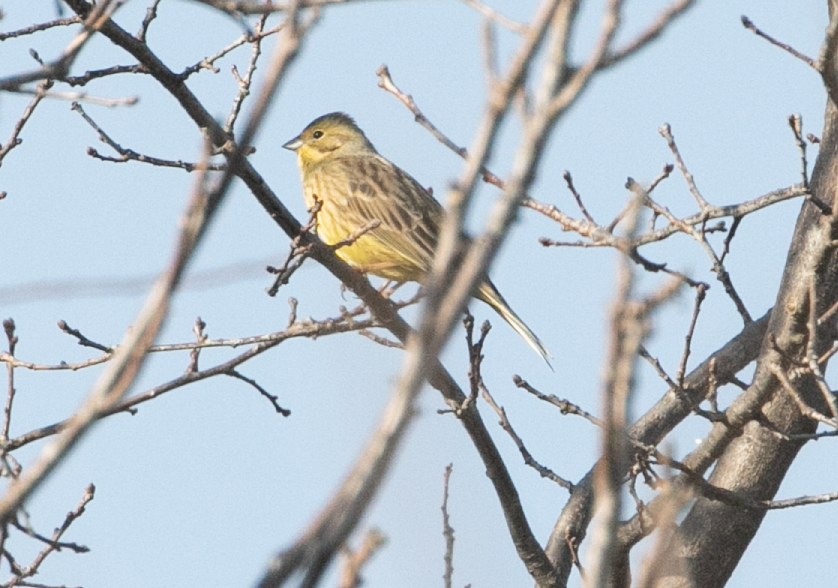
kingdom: Animalia
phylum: Chordata
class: Aves
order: Passeriformes
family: Emberizidae
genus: Emberiza
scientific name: Emberiza citrinella
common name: Yellowhammer
